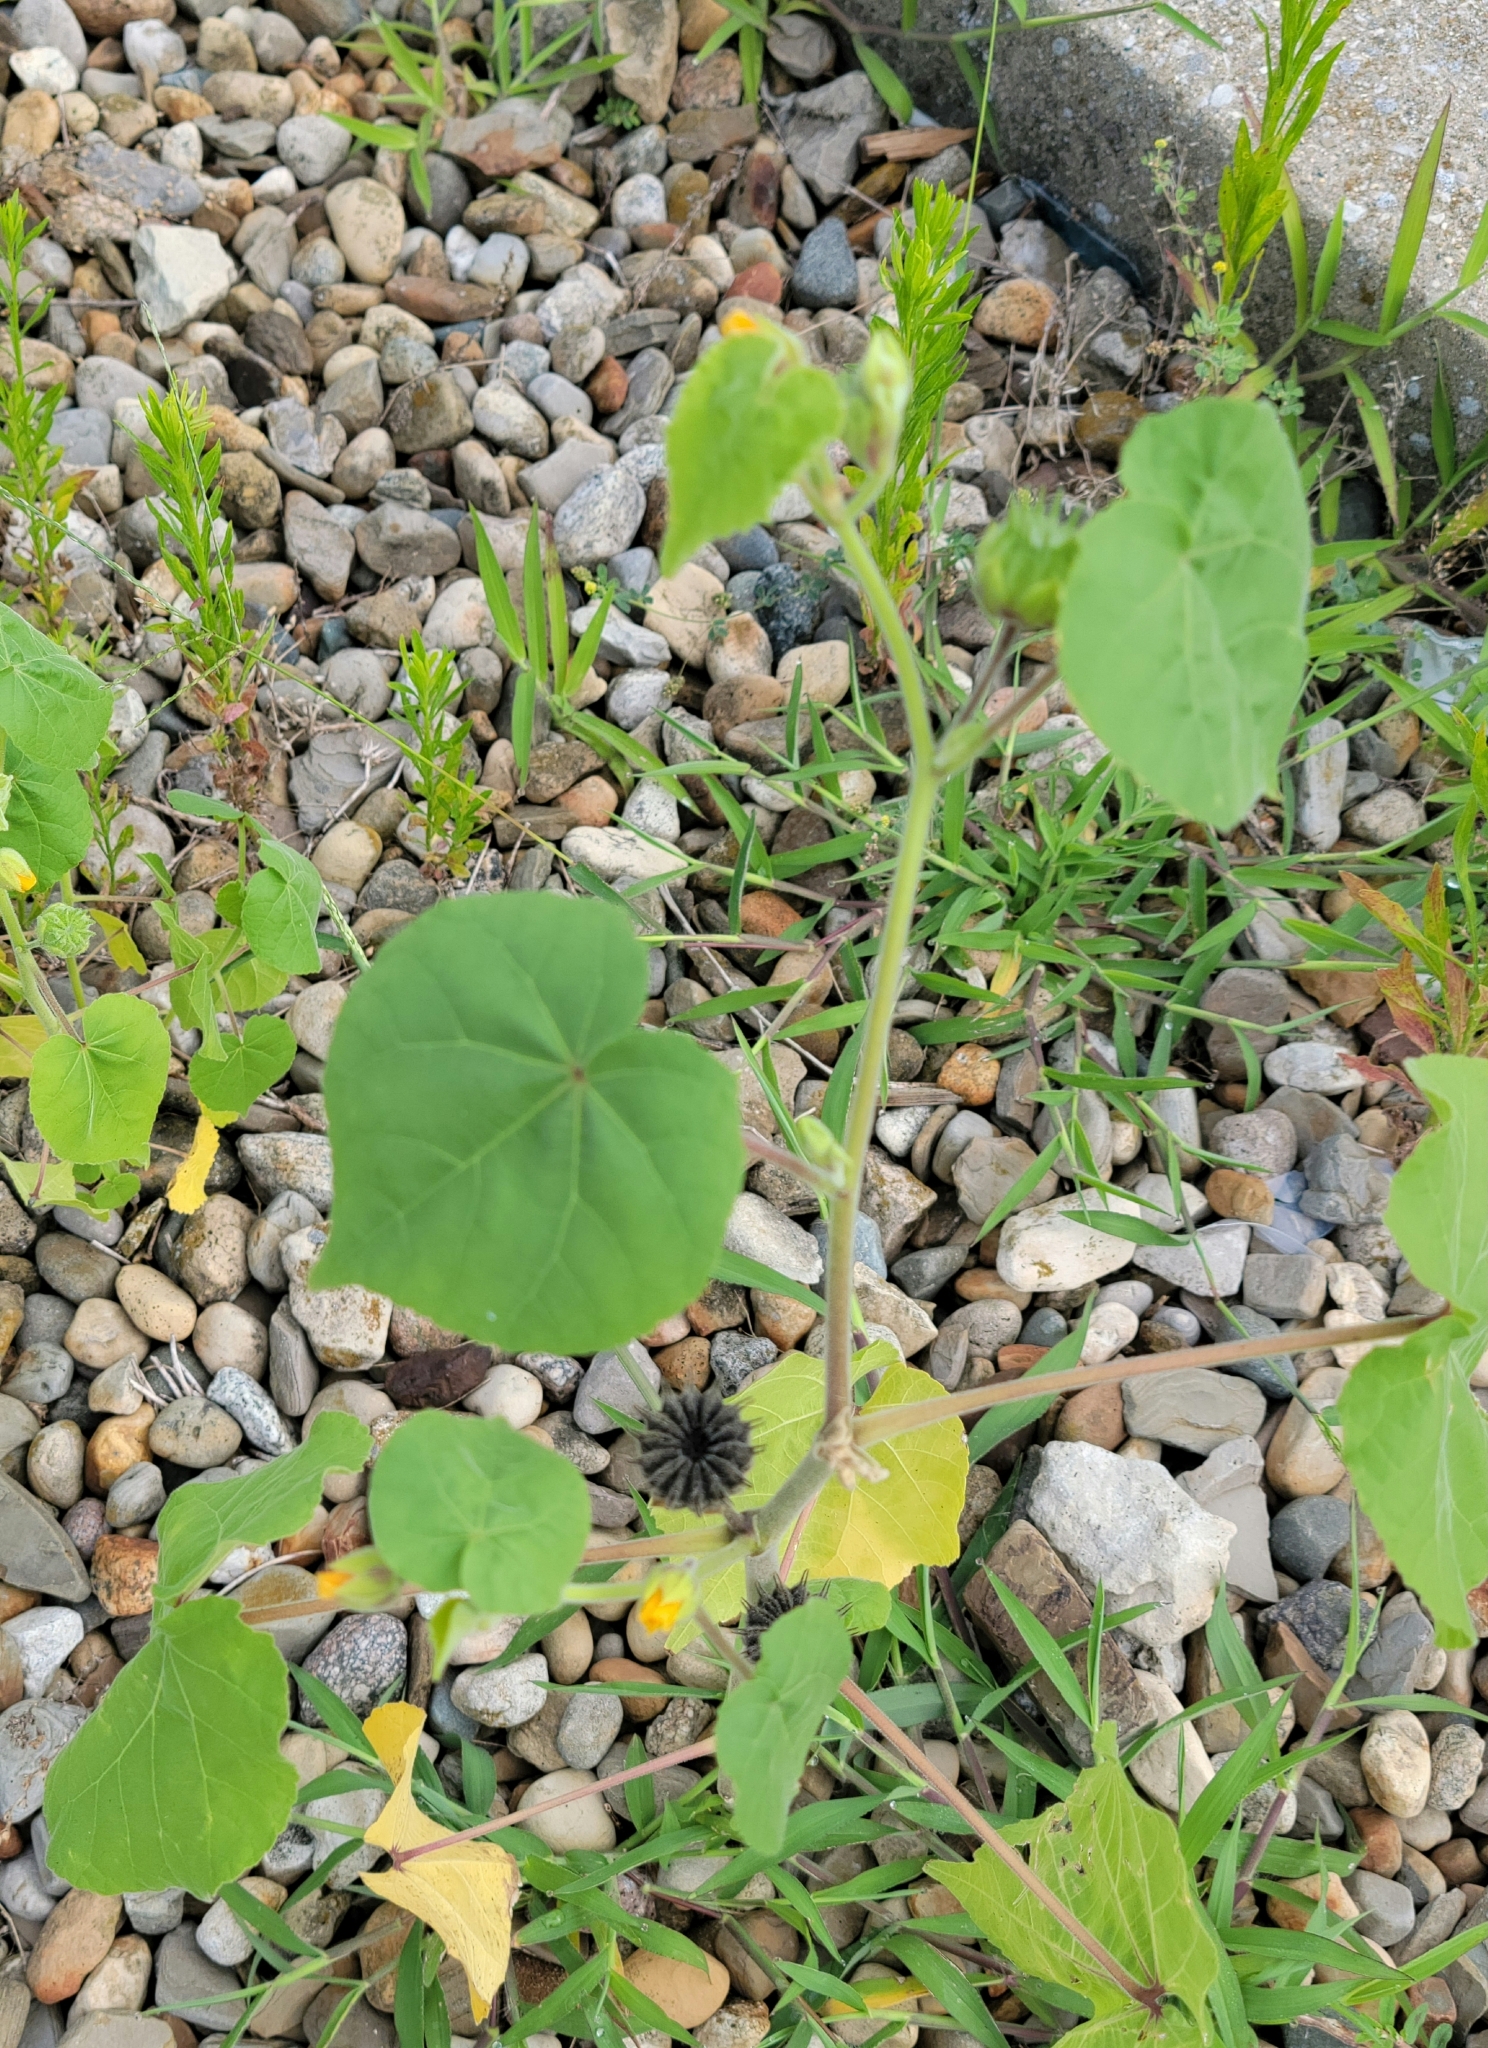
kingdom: Plantae
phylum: Tracheophyta
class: Magnoliopsida
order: Malvales
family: Malvaceae
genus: Abutilon
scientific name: Abutilon theophrasti
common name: Velvetleaf
